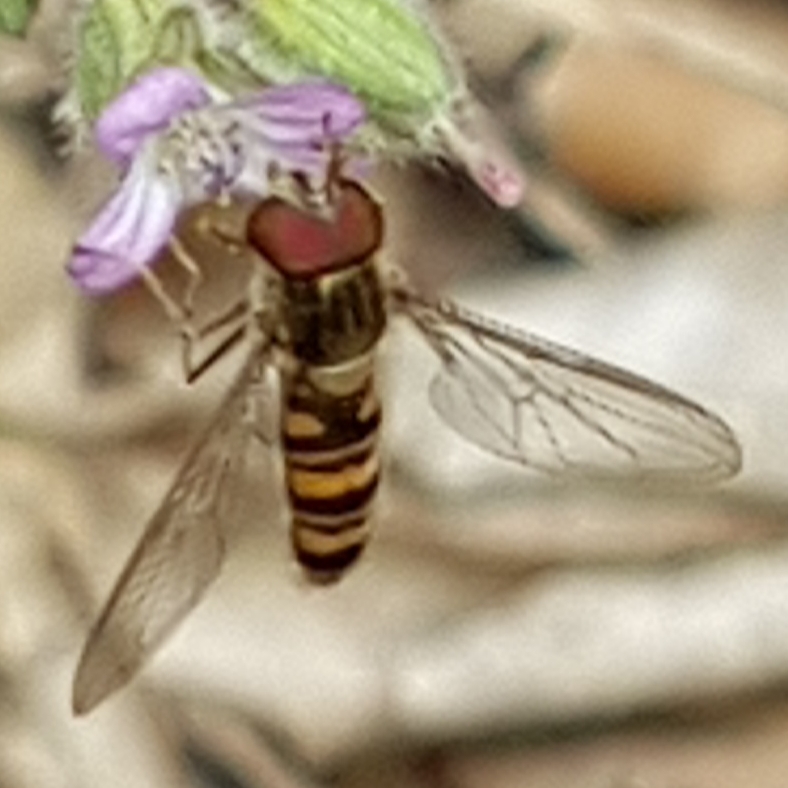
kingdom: Animalia
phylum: Arthropoda
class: Insecta
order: Diptera
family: Syrphidae
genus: Episyrphus
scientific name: Episyrphus balteatus
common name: Marmalade hoverfly
